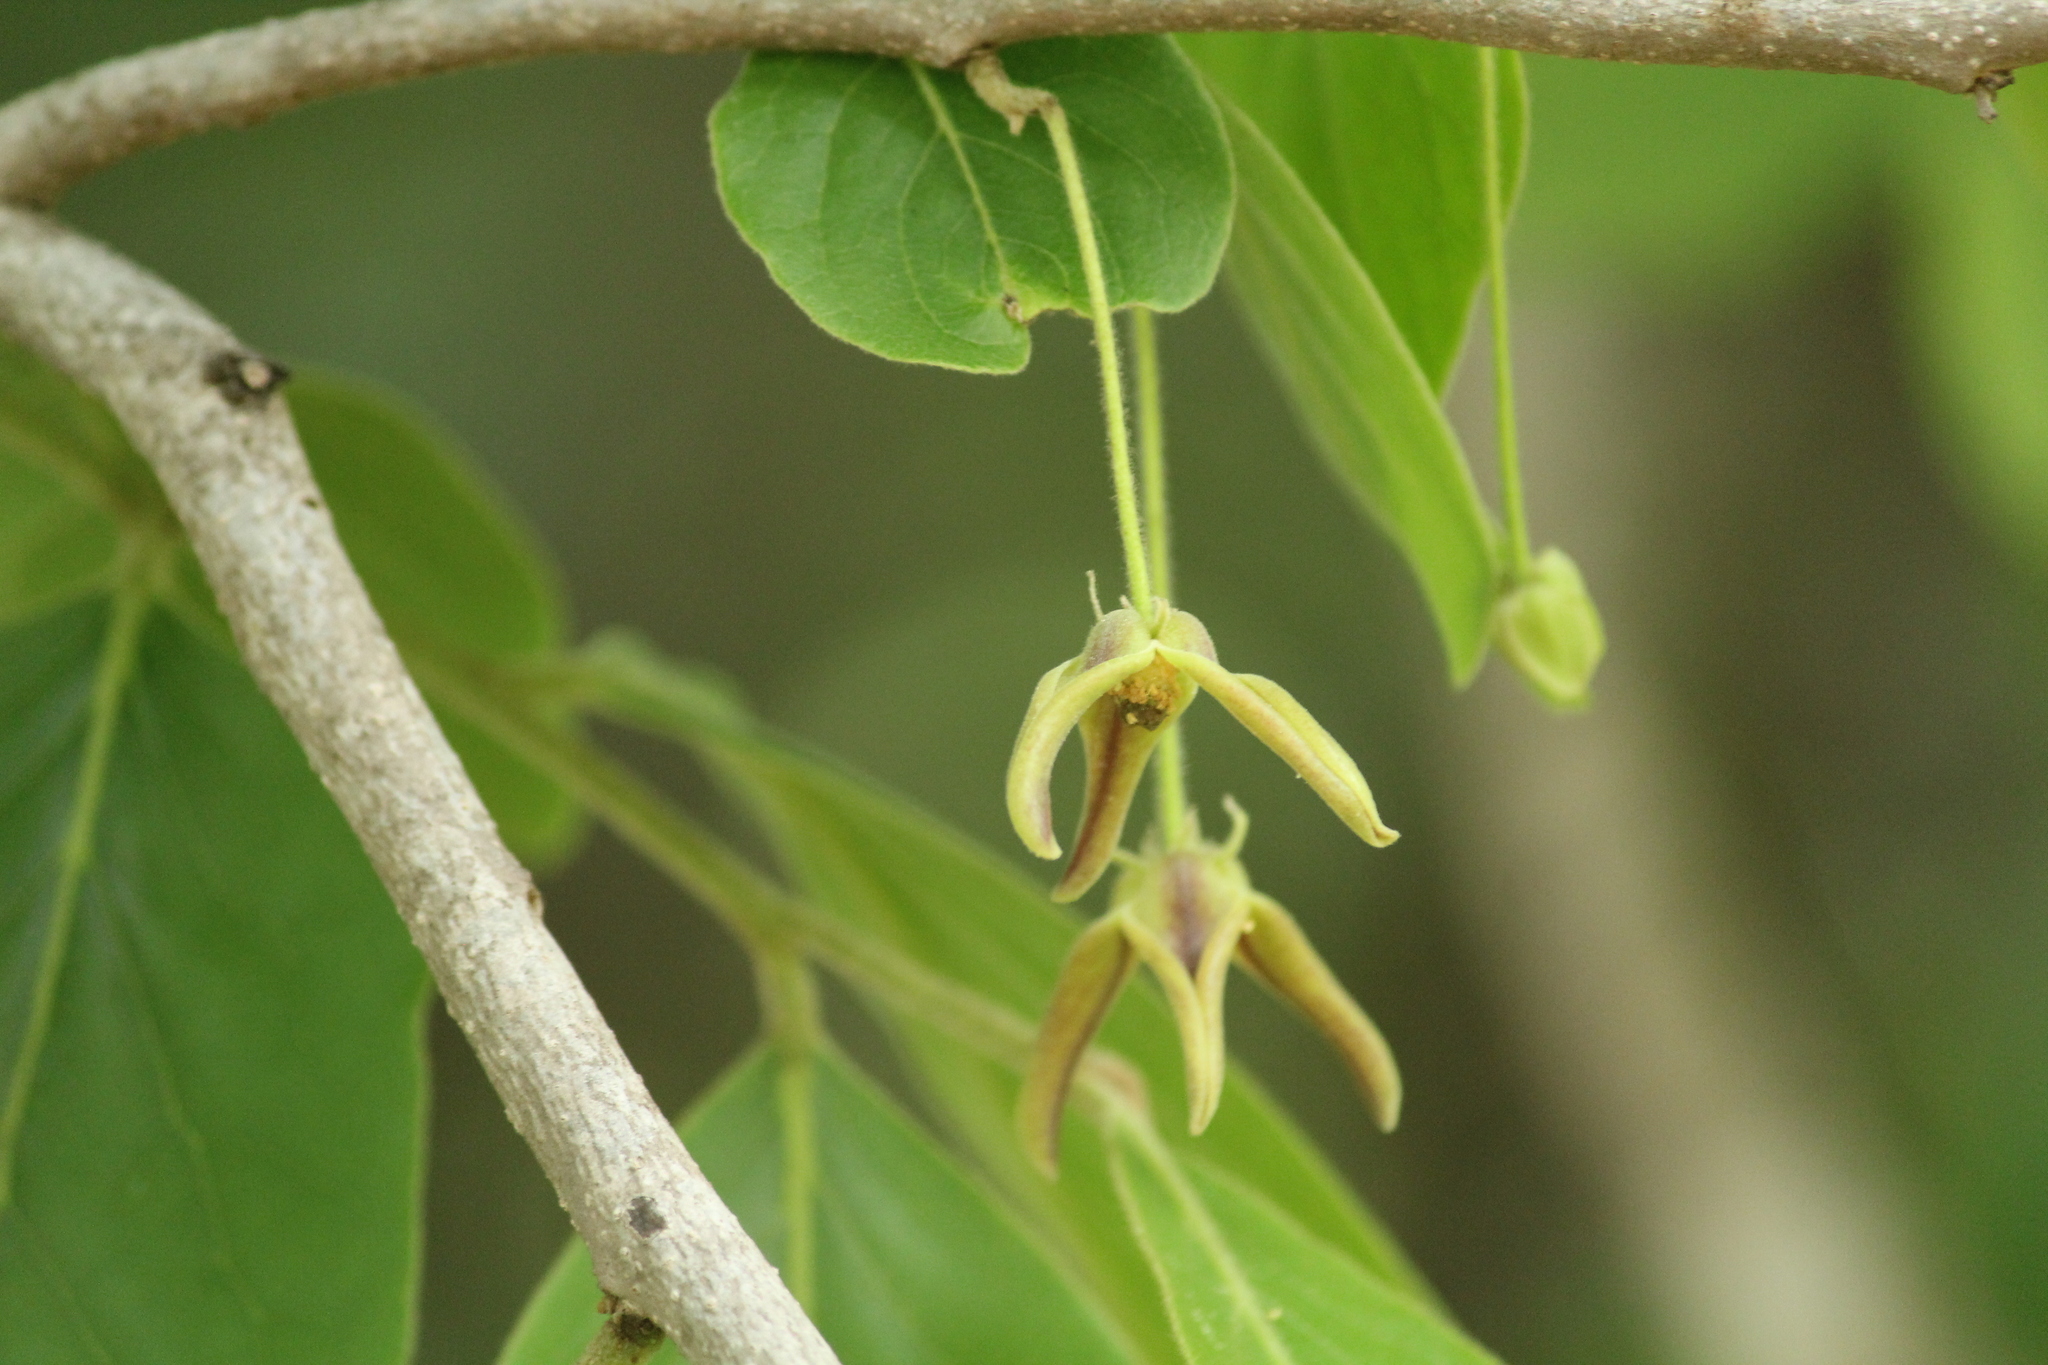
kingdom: Plantae
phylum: Tracheophyta
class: Magnoliopsida
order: Magnoliales
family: Annonaceae
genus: Miliusa
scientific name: Miliusa tomentosa
